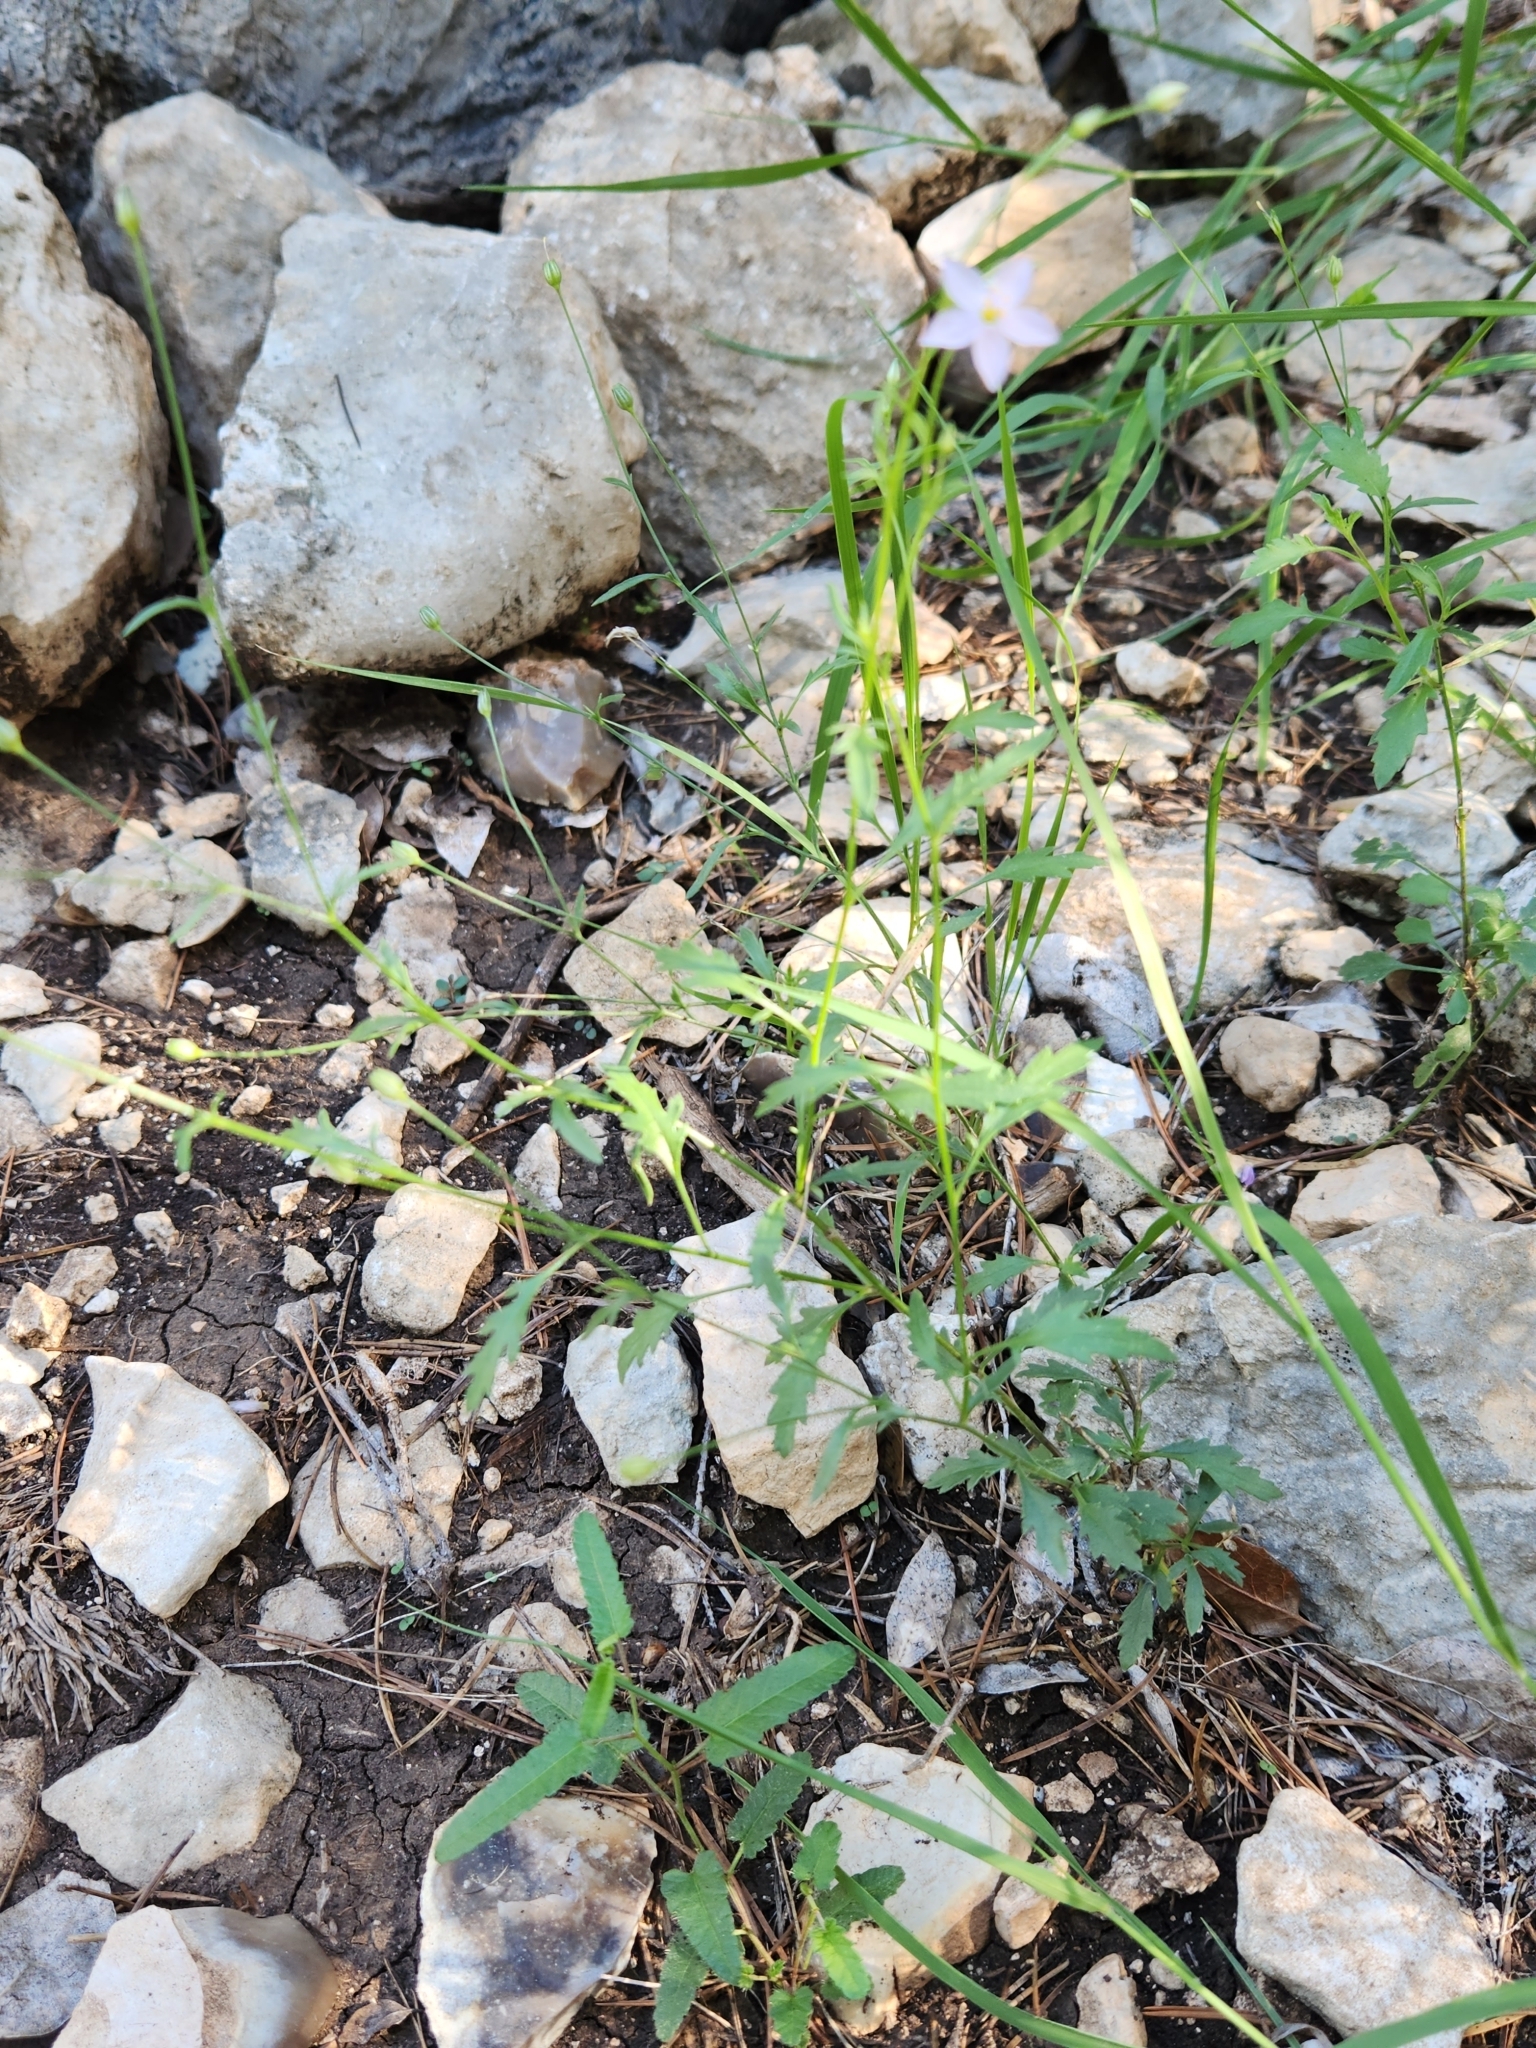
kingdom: Plantae
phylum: Tracheophyta
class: Magnoliopsida
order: Ericales
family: Polemoniaceae
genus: Giliastrum
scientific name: Giliastrum incisum
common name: Splitleaf gilia
